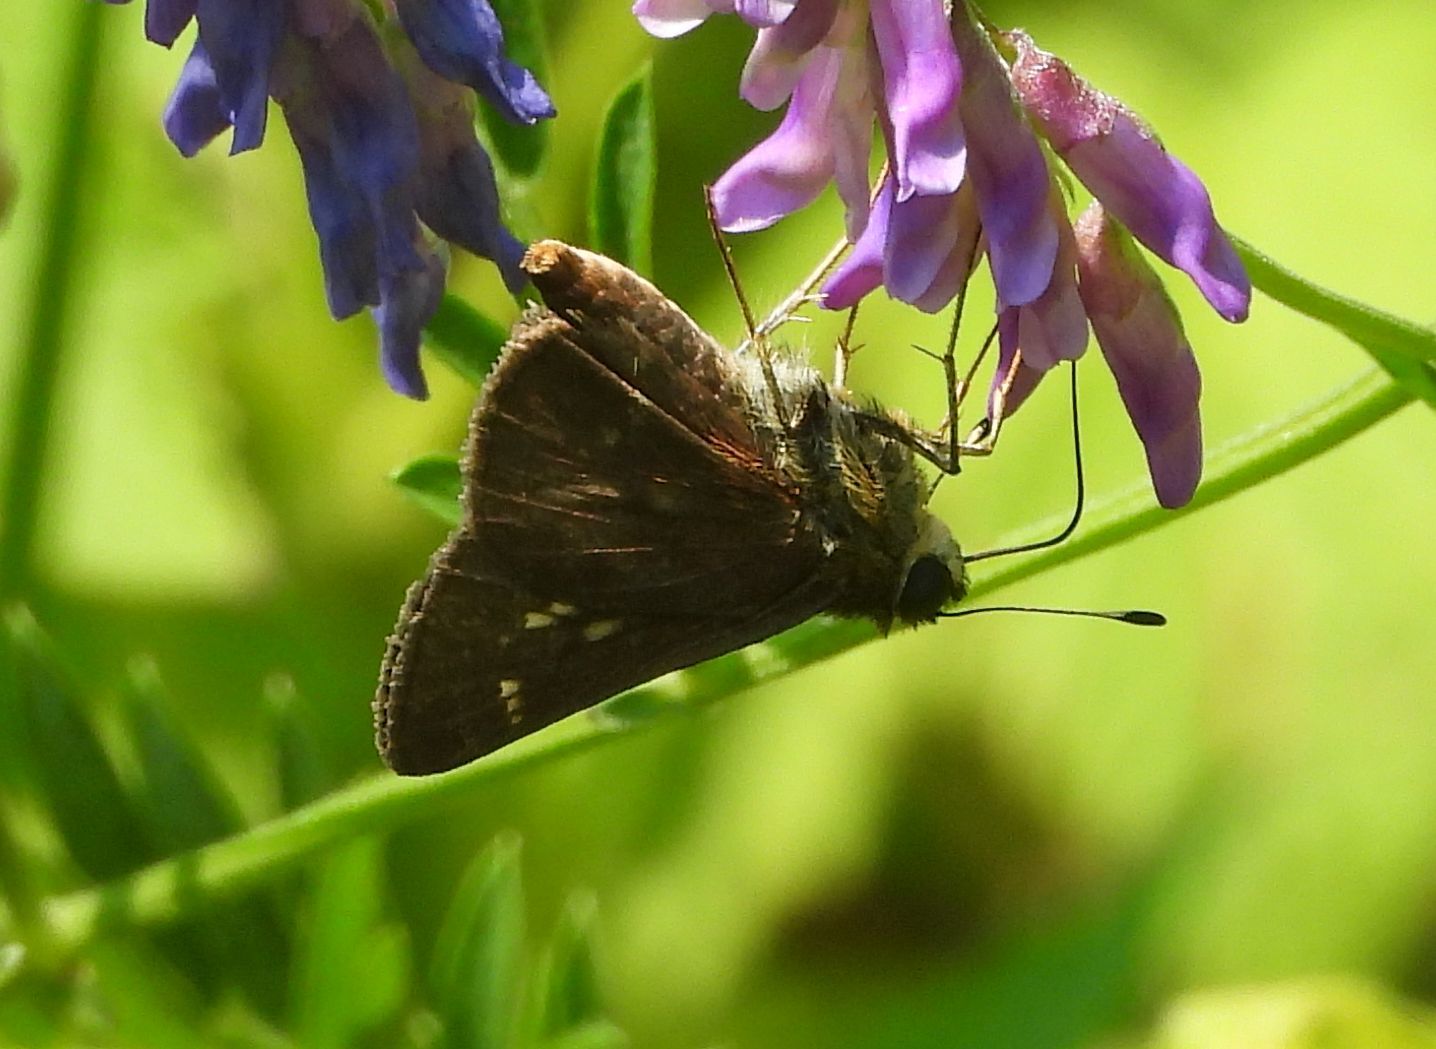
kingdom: Animalia
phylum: Arthropoda
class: Insecta
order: Lepidoptera
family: Hesperiidae
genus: Vernia
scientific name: Vernia verna
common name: Little glassywing
